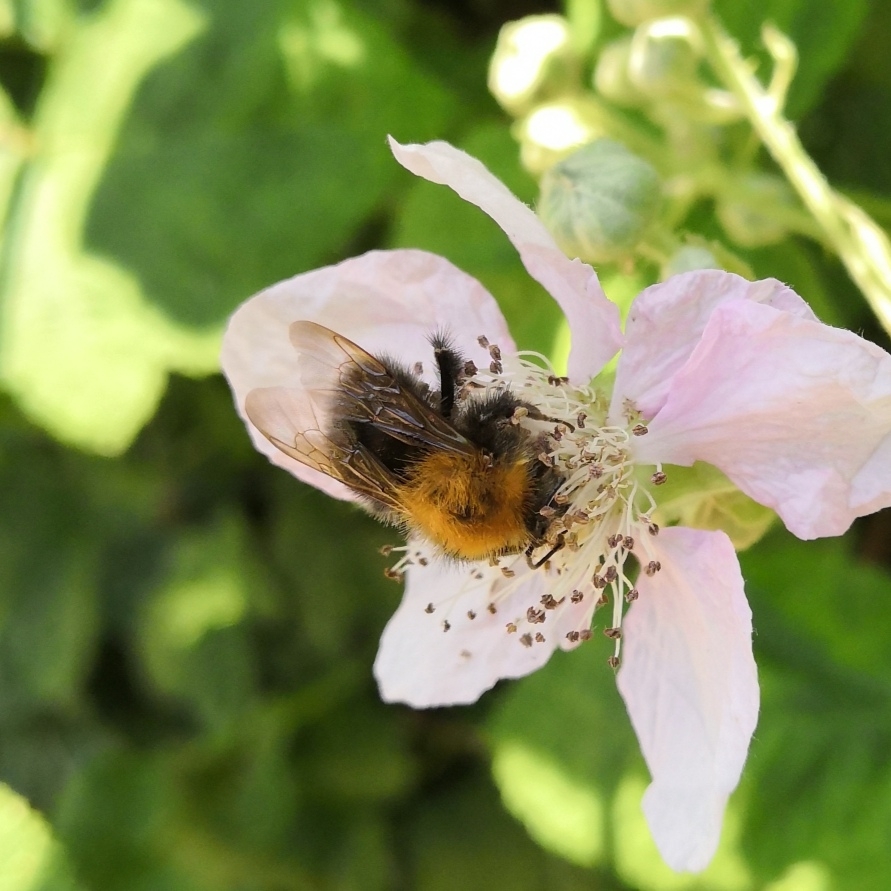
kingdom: Animalia
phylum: Arthropoda
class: Insecta
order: Hymenoptera
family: Apidae
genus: Bombus
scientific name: Bombus hypnorum
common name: New garden bumblebee
